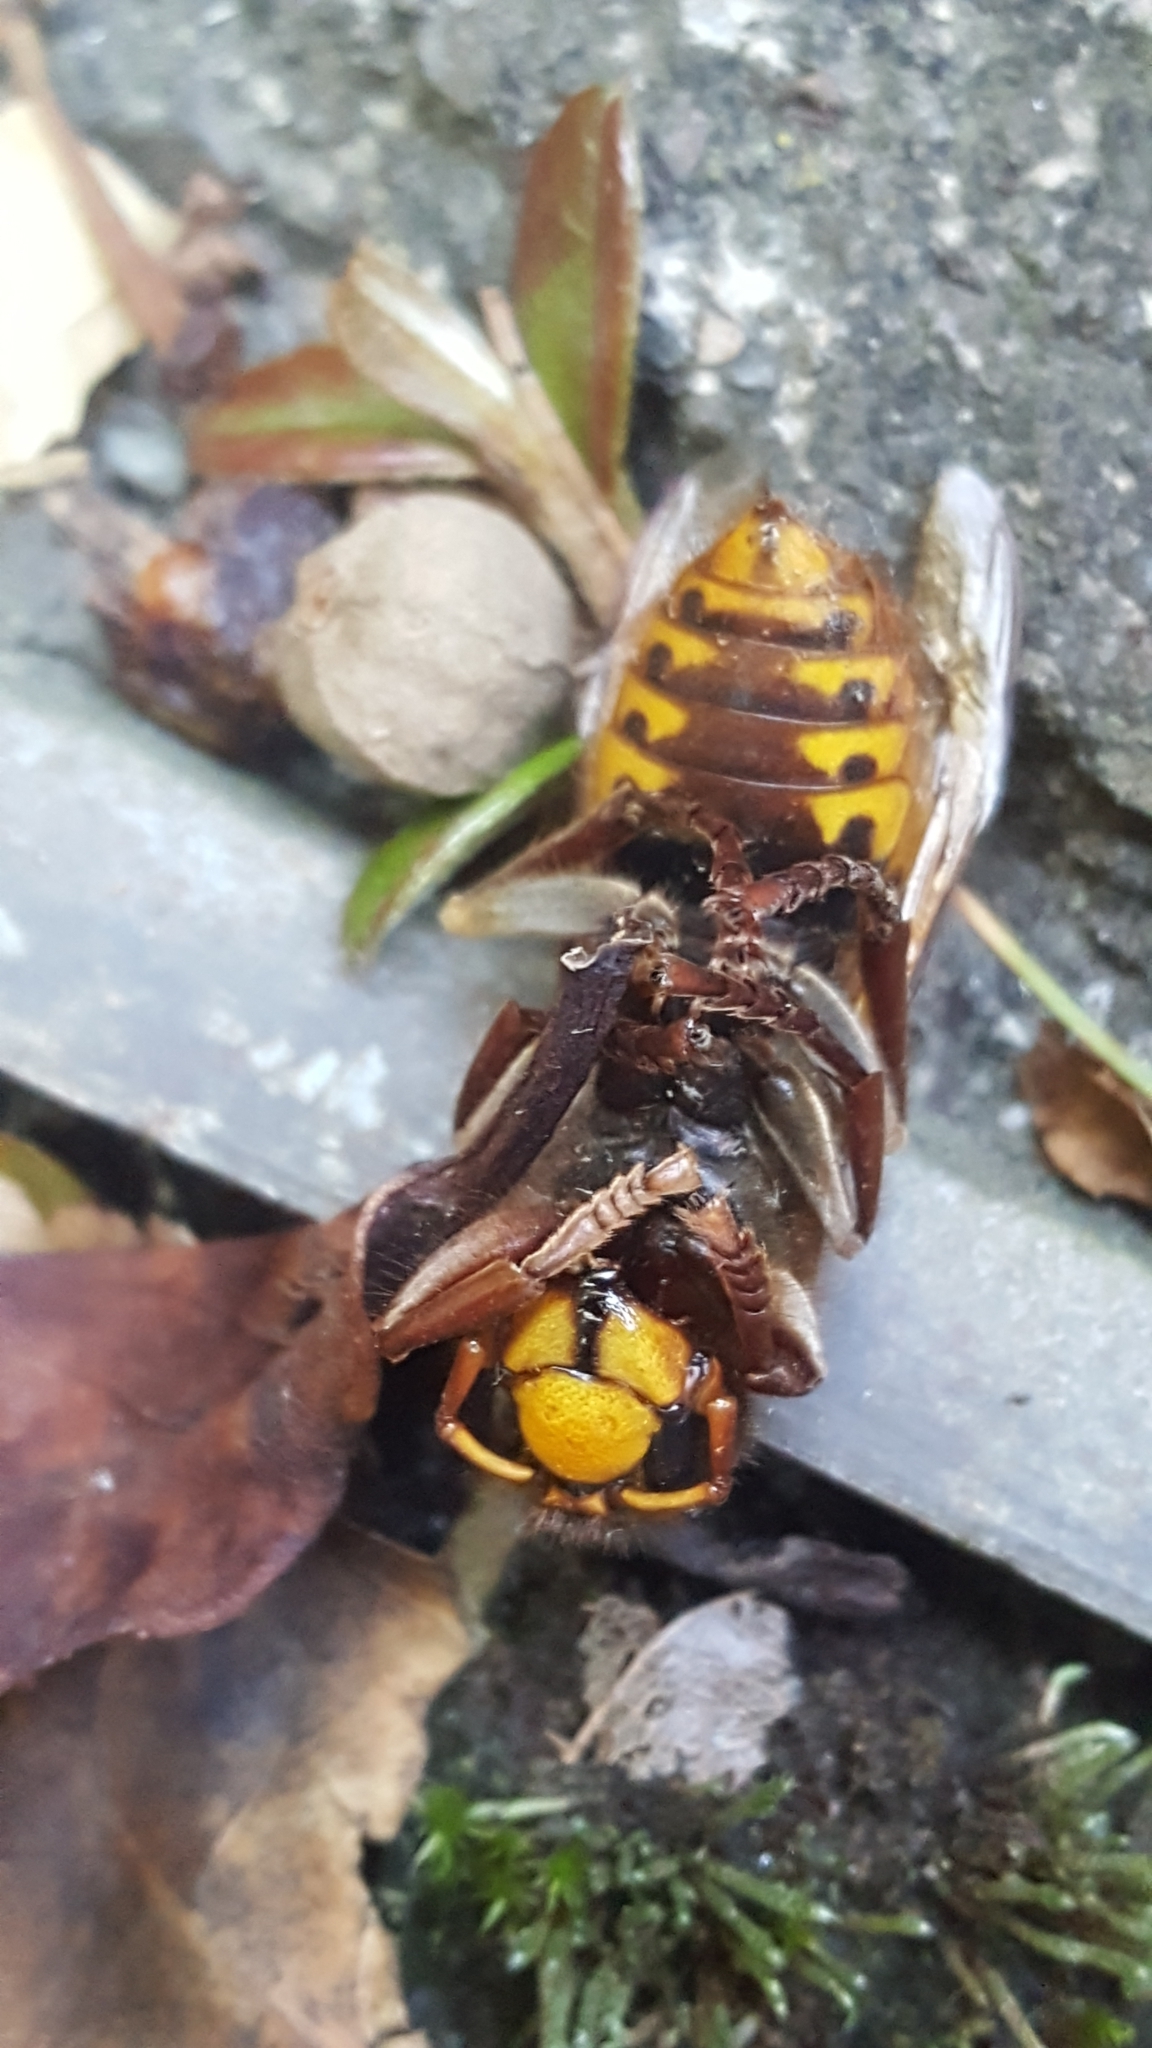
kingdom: Animalia
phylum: Arthropoda
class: Insecta
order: Hymenoptera
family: Vespidae
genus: Vespa
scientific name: Vespa crabro
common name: Hornet
